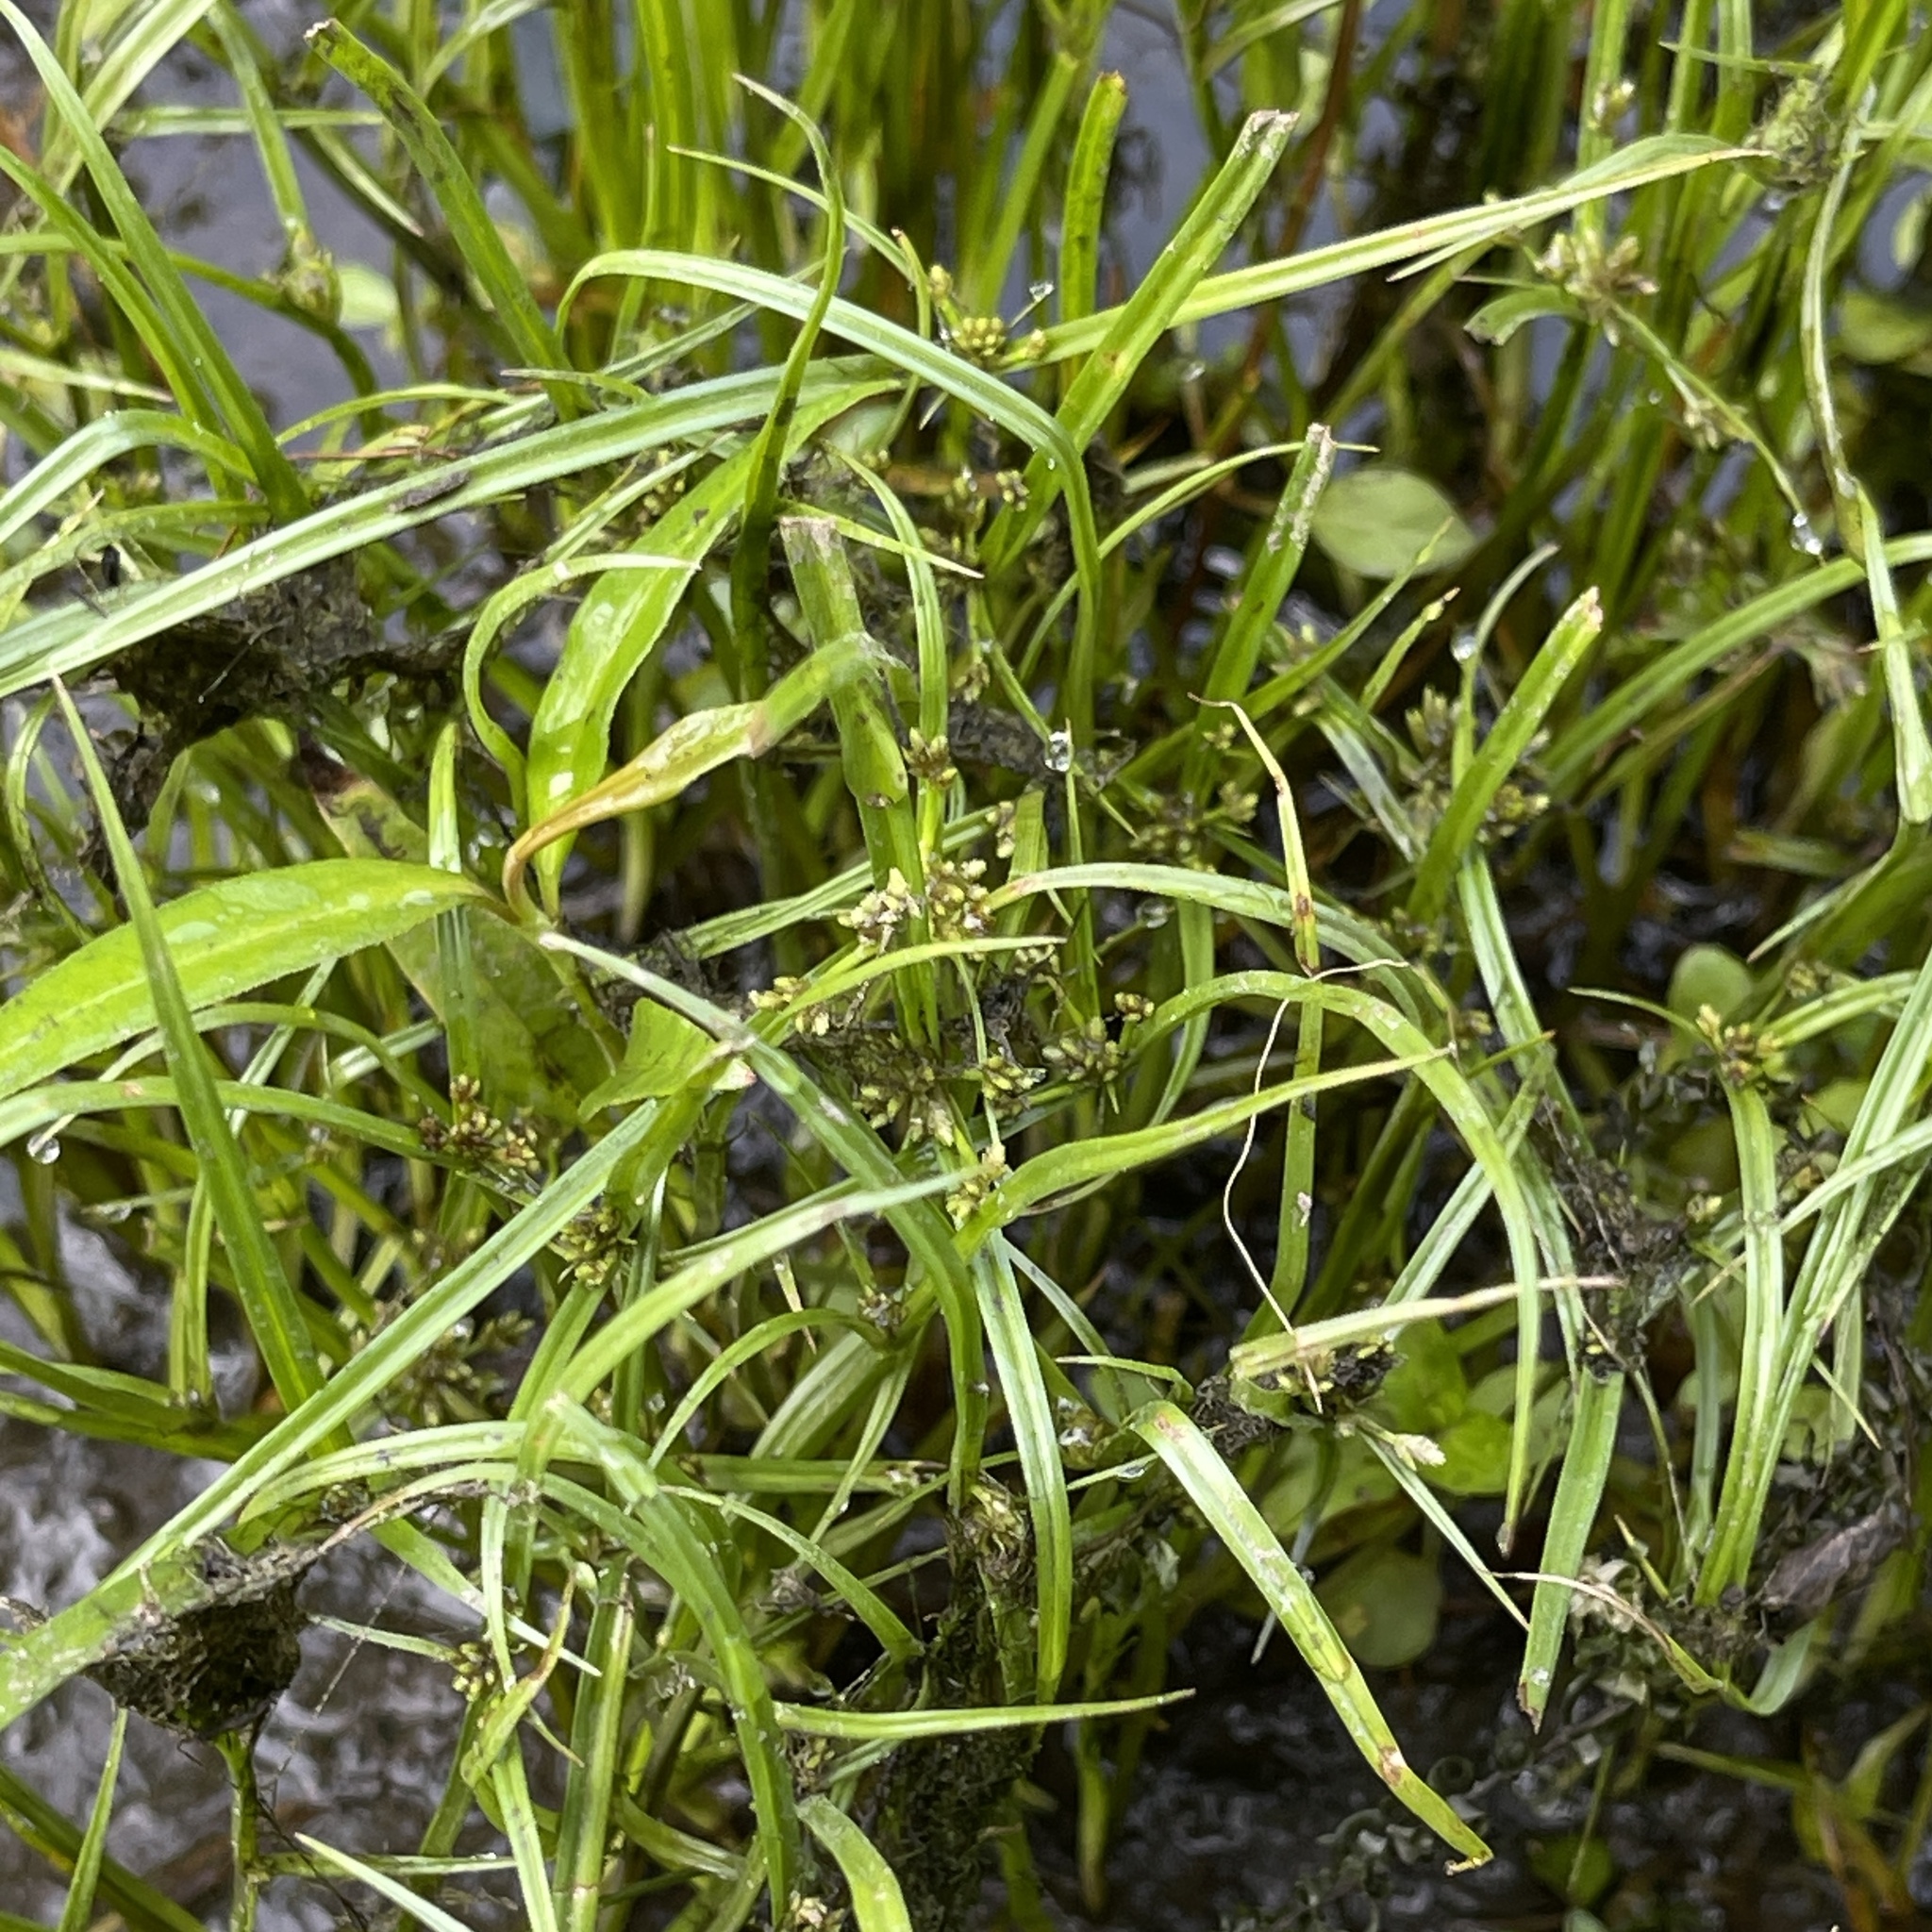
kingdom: Plantae
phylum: Tracheophyta
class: Liliopsida
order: Poales
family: Cyperaceae
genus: Cyperus
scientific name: Cyperus fuscus
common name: Brown galingale
